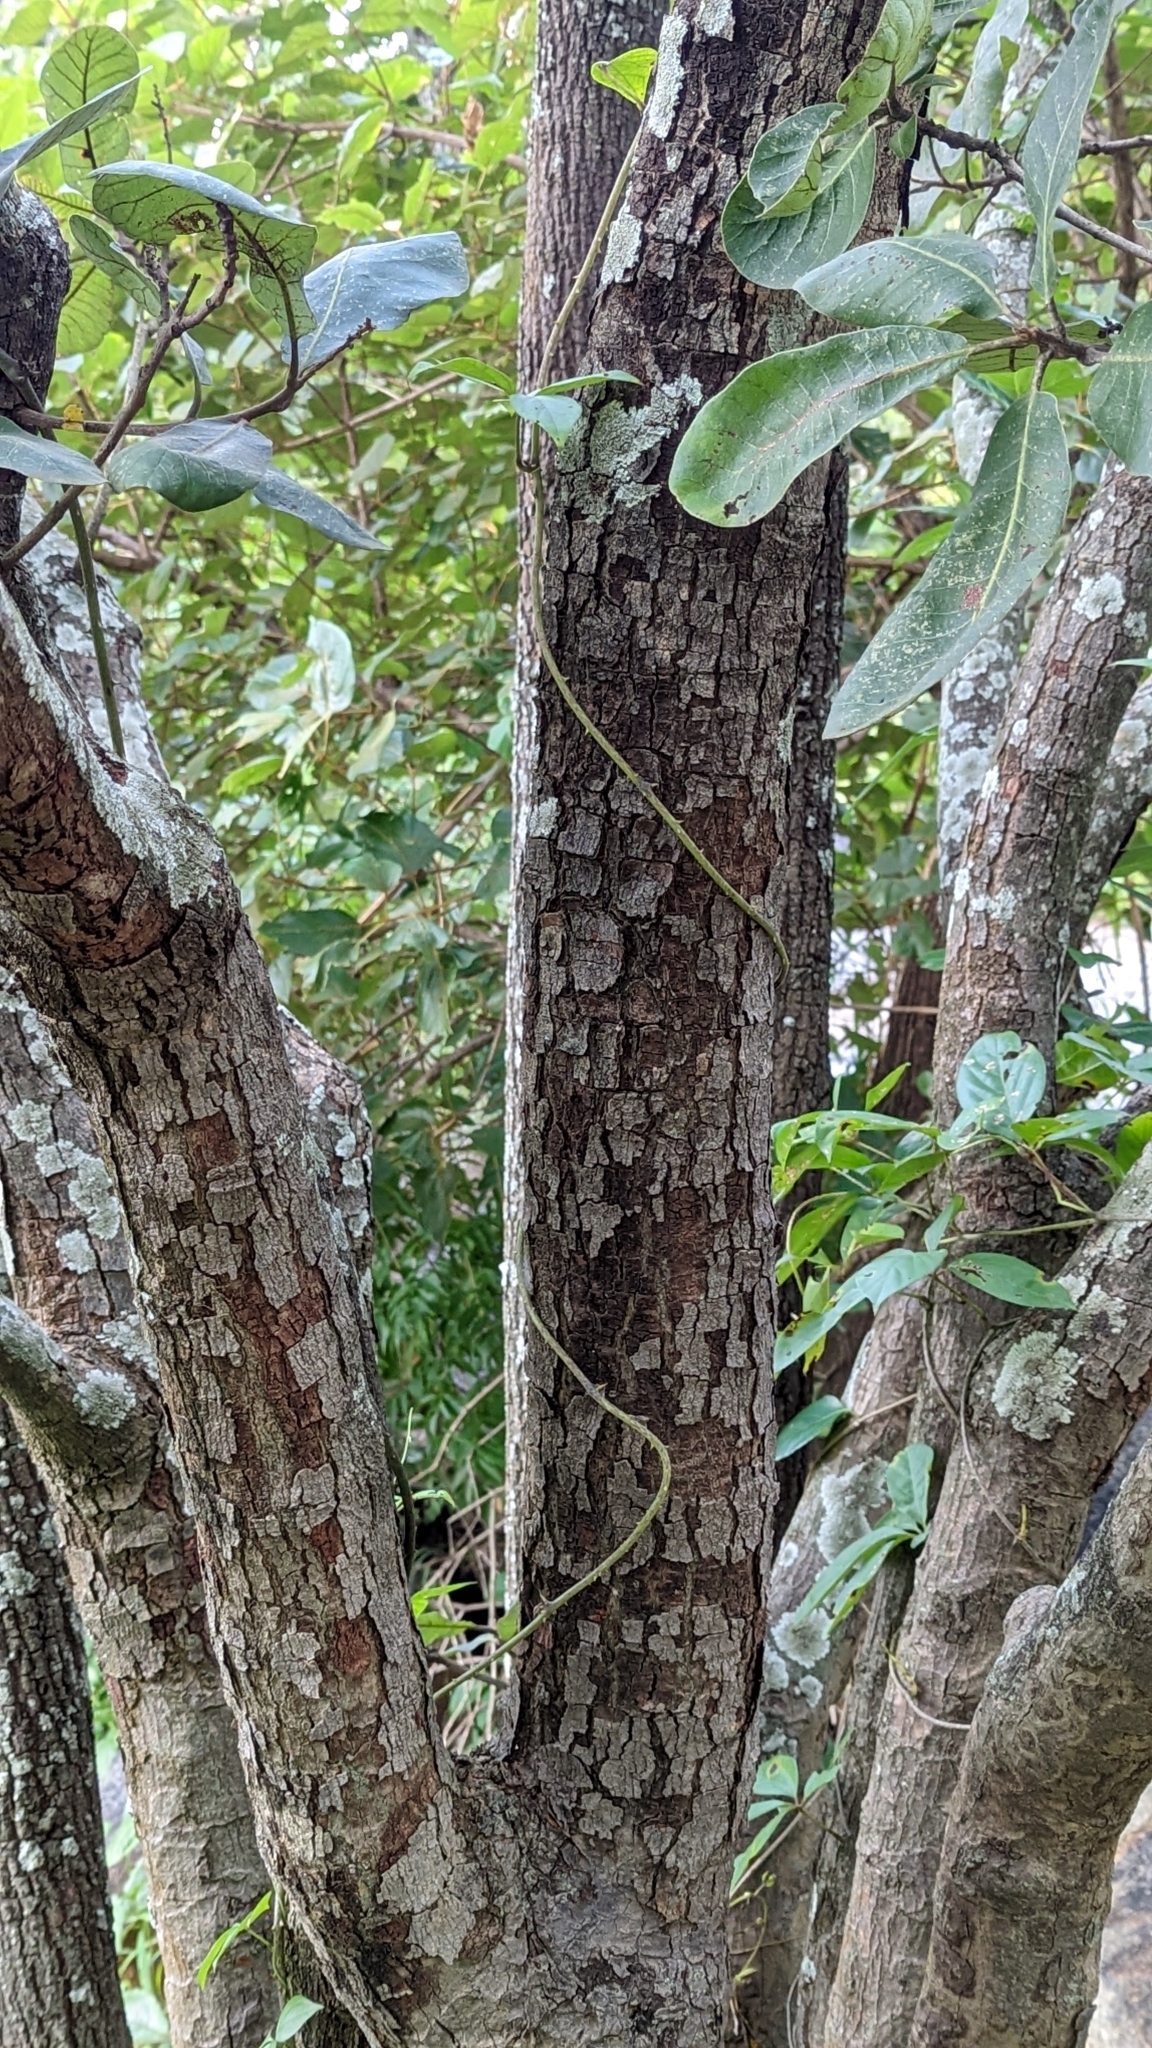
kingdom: Plantae
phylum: Tracheophyta
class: Magnoliopsida
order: Sapindales
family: Anacardiaceae
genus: Semecarpus
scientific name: Semecarpus anacardium
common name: Marking nut-tree
